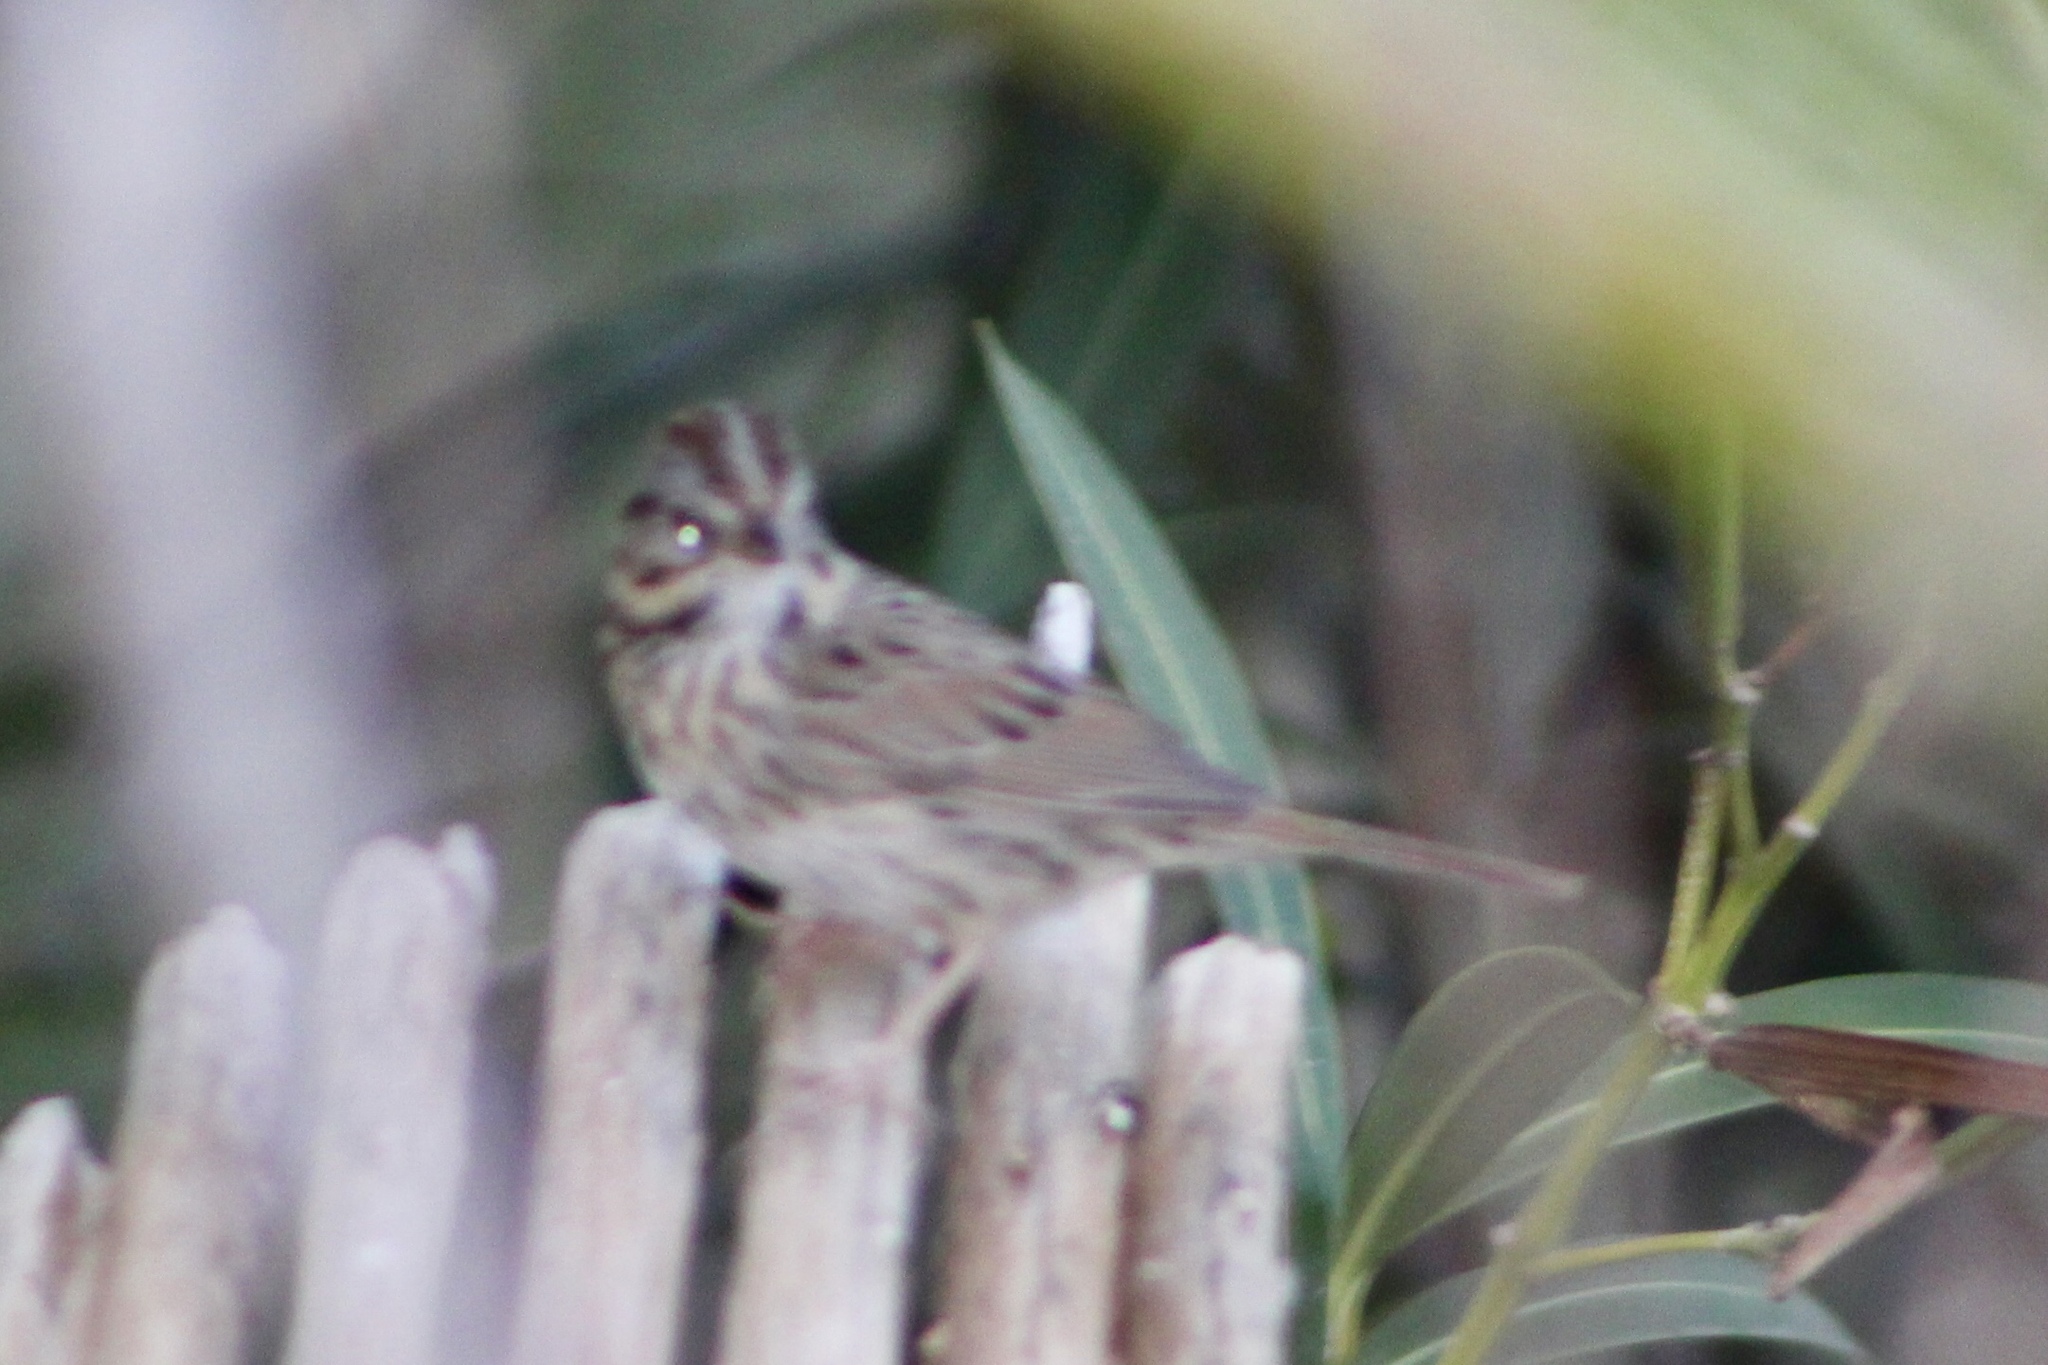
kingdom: Animalia
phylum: Chordata
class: Aves
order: Passeriformes
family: Passerellidae
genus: Melospiza
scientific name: Melospiza lincolnii
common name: Lincoln's sparrow
